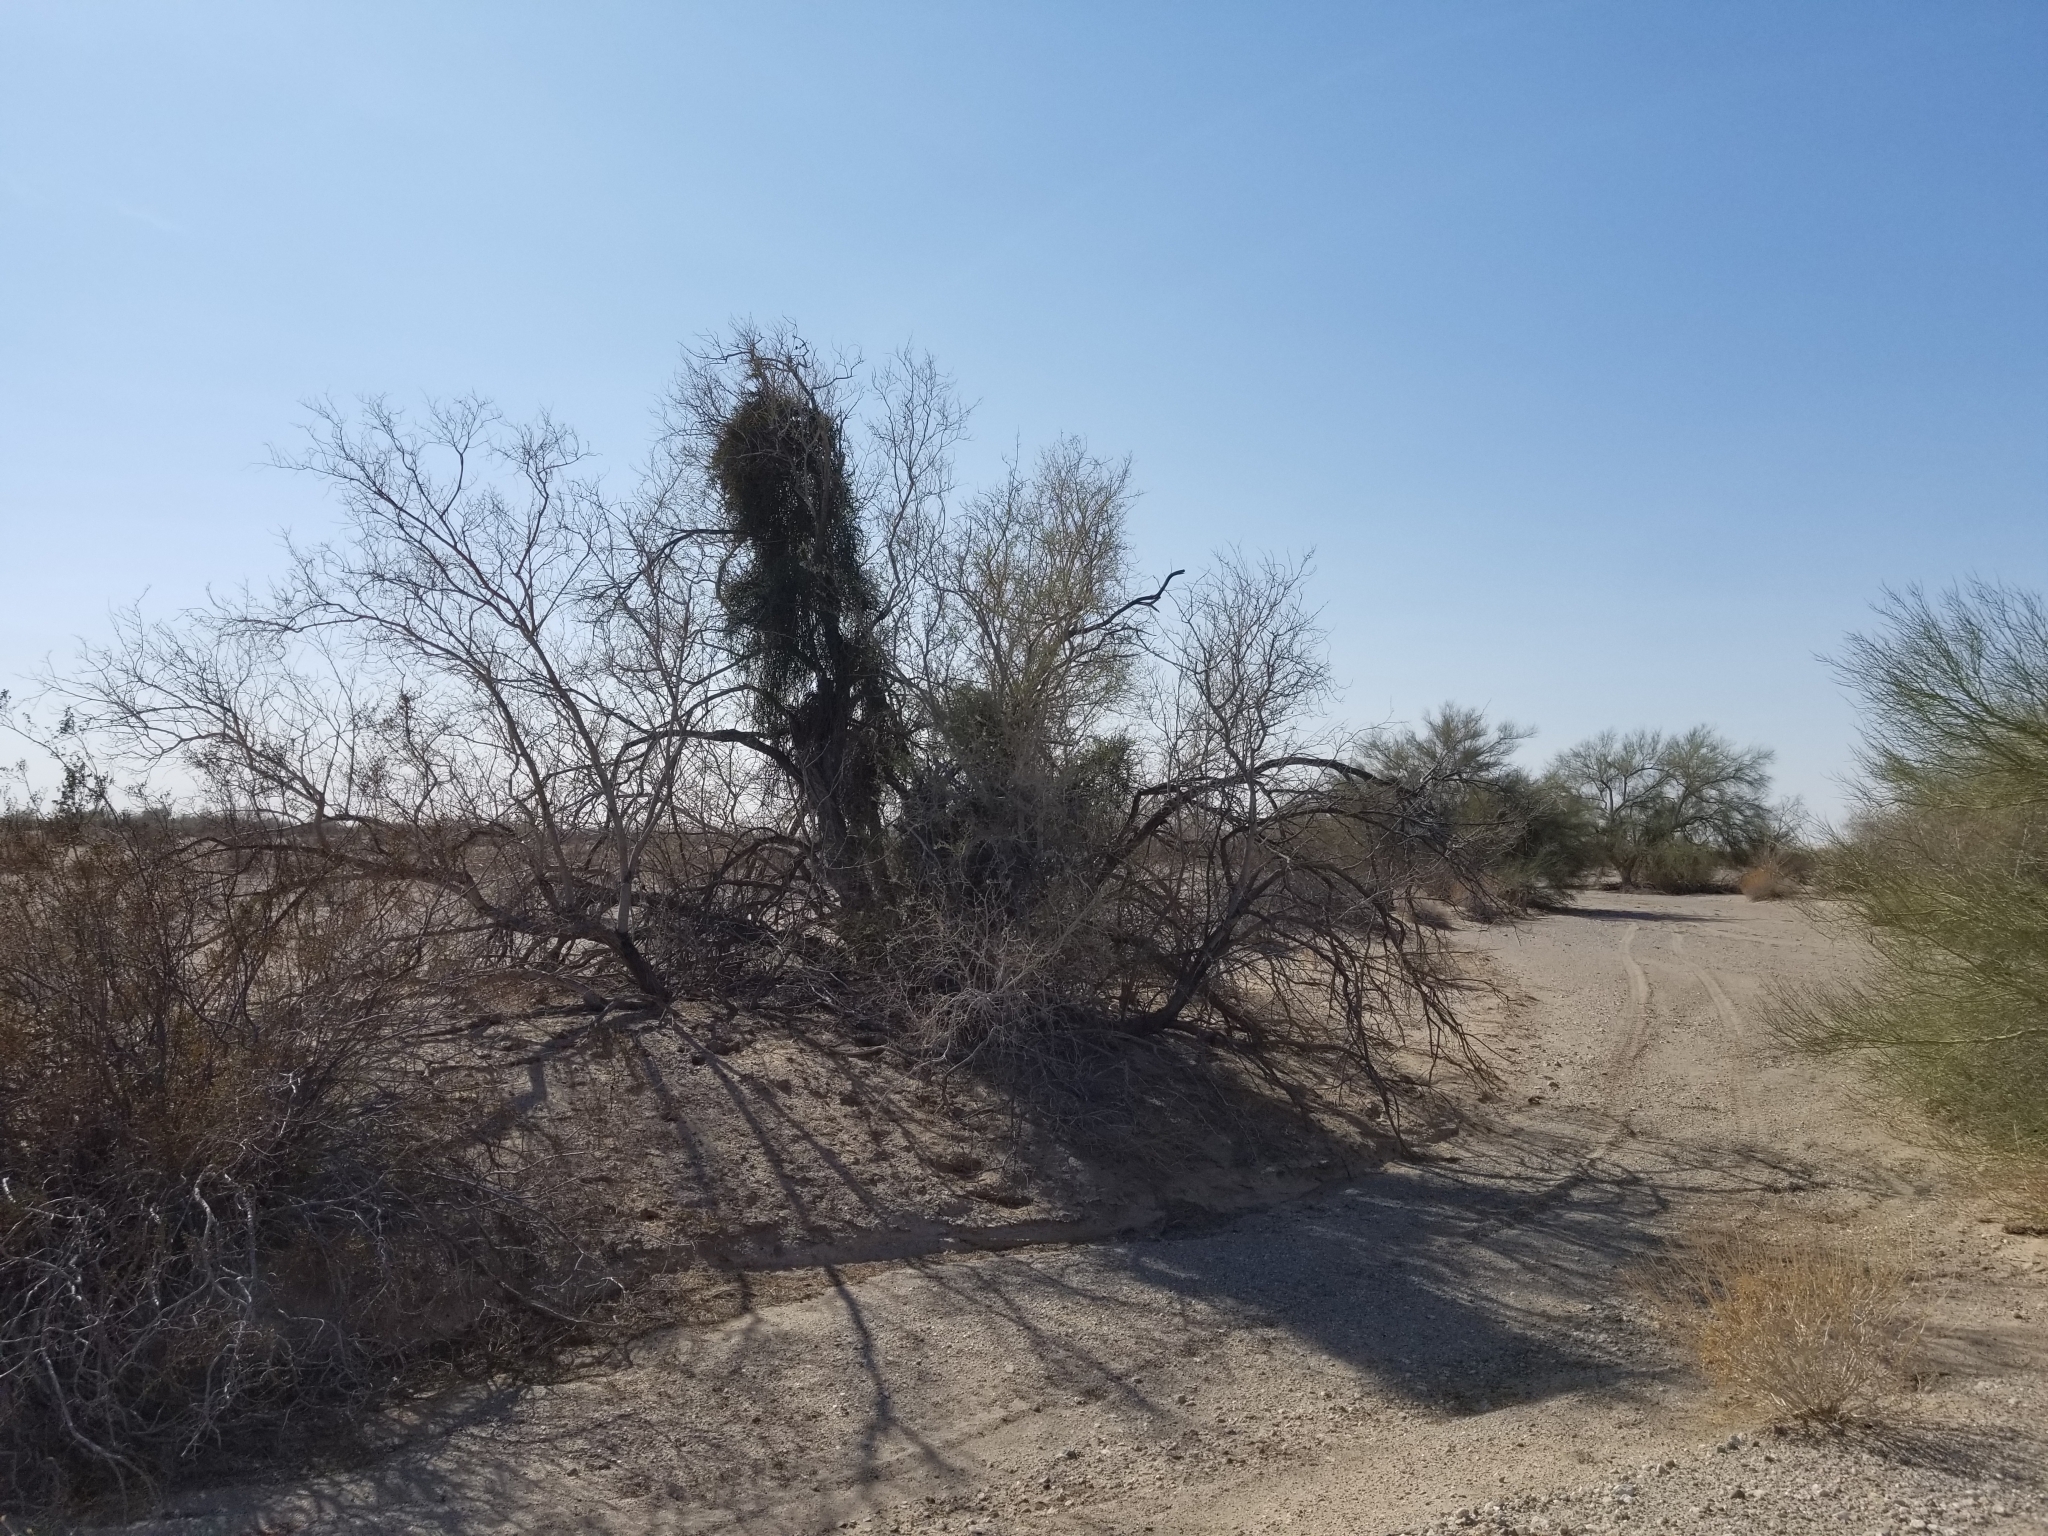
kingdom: Plantae
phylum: Tracheophyta
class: Magnoliopsida
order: Santalales
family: Viscaceae
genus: Phoradendron
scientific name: Phoradendron californicum
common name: Acacia mistletoe
